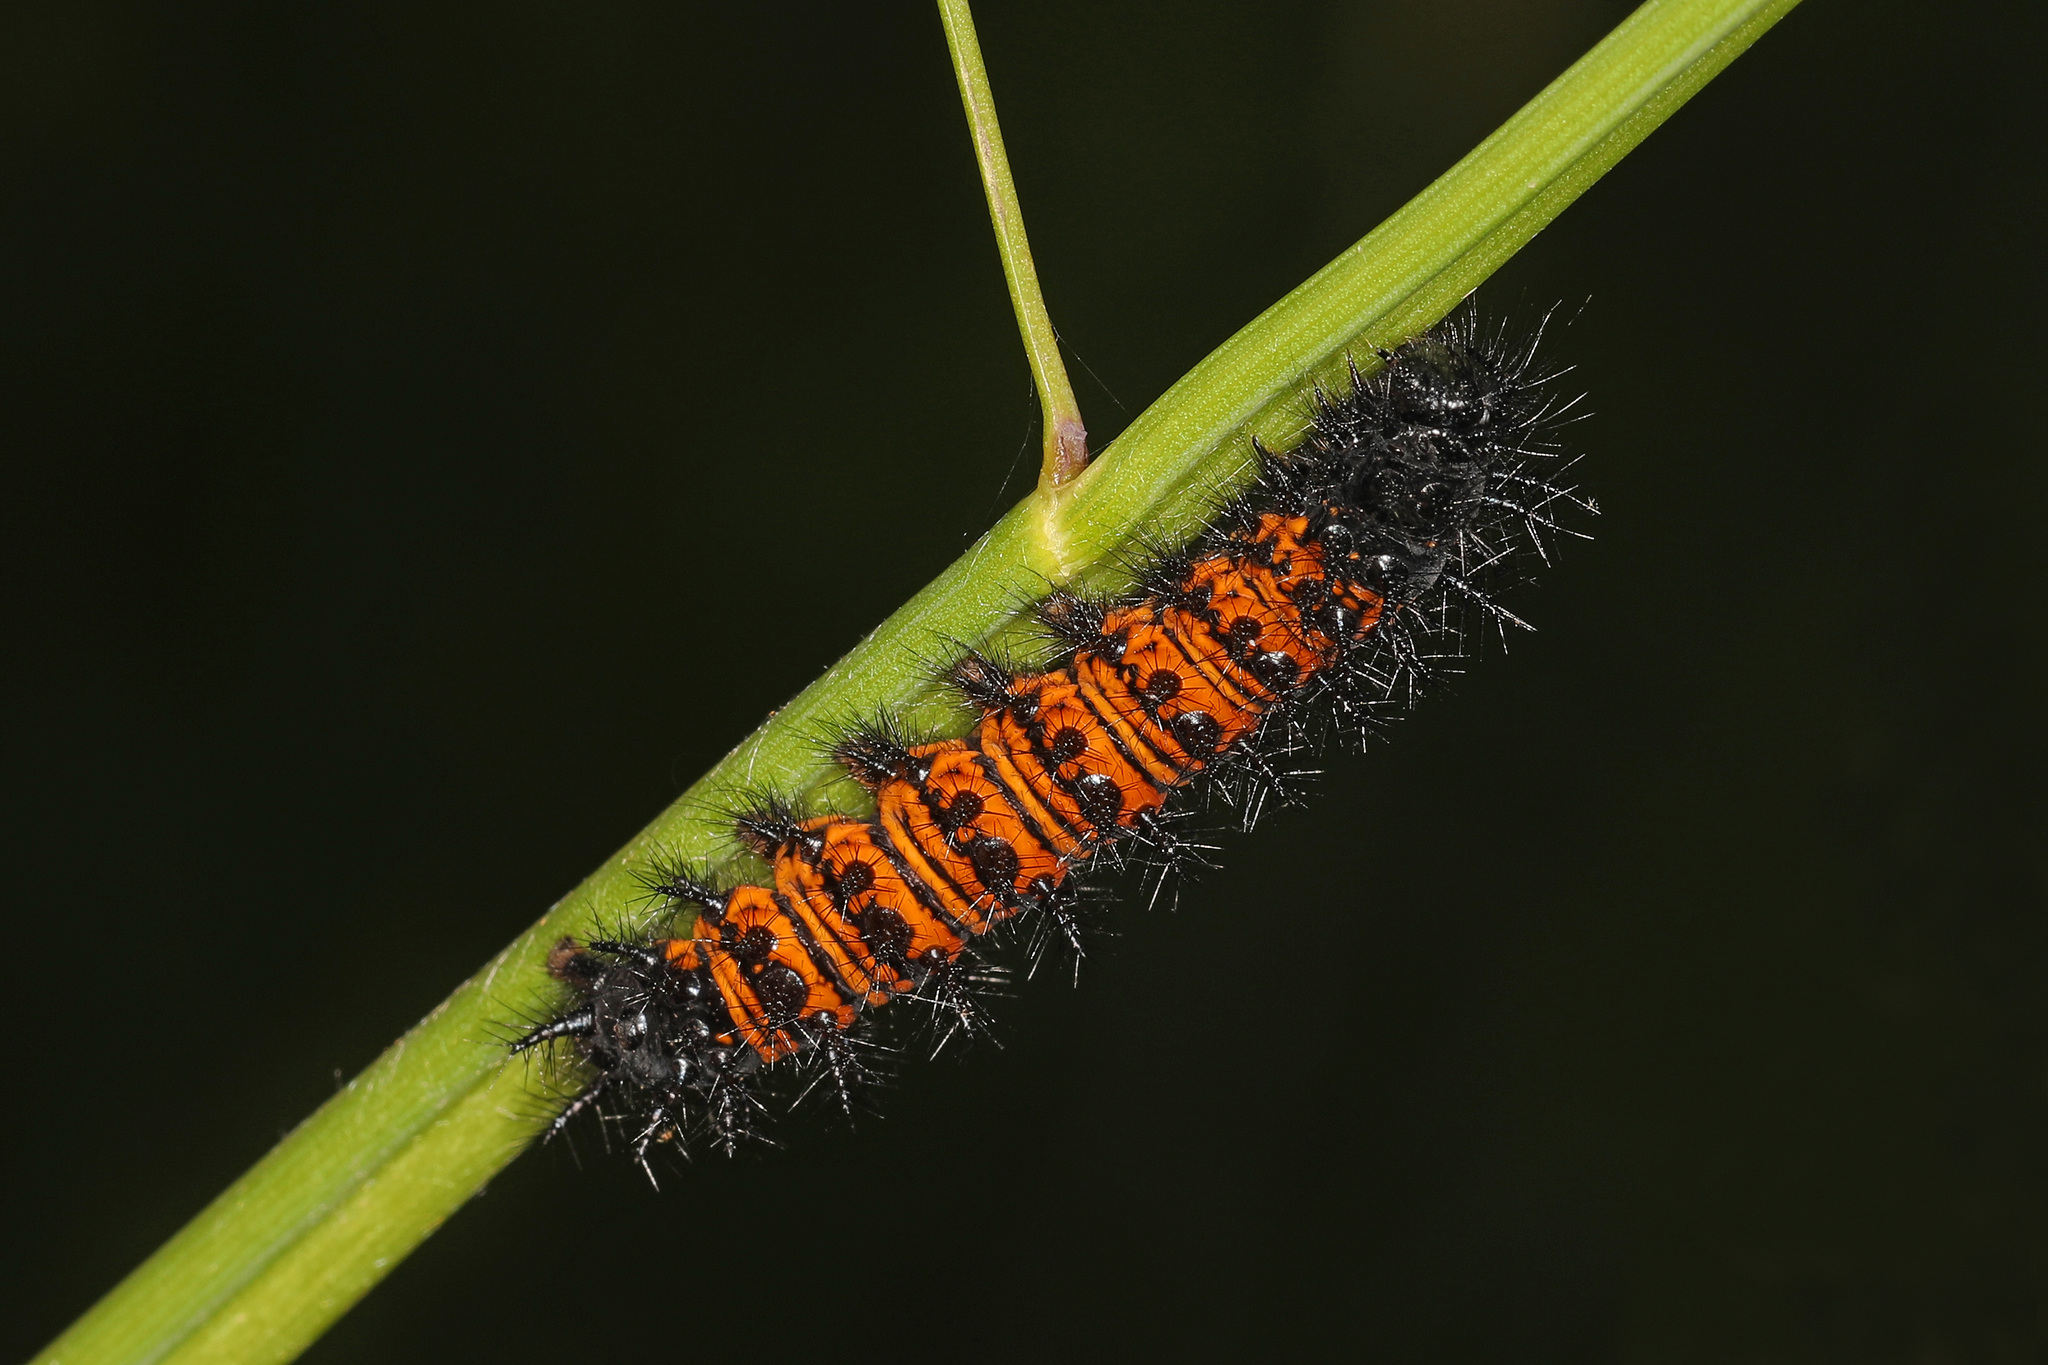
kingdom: Animalia
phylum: Arthropoda
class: Insecta
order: Lepidoptera
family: Nymphalidae
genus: Euphydryas
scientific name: Euphydryas phaeton
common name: Baltimore checkerspot
